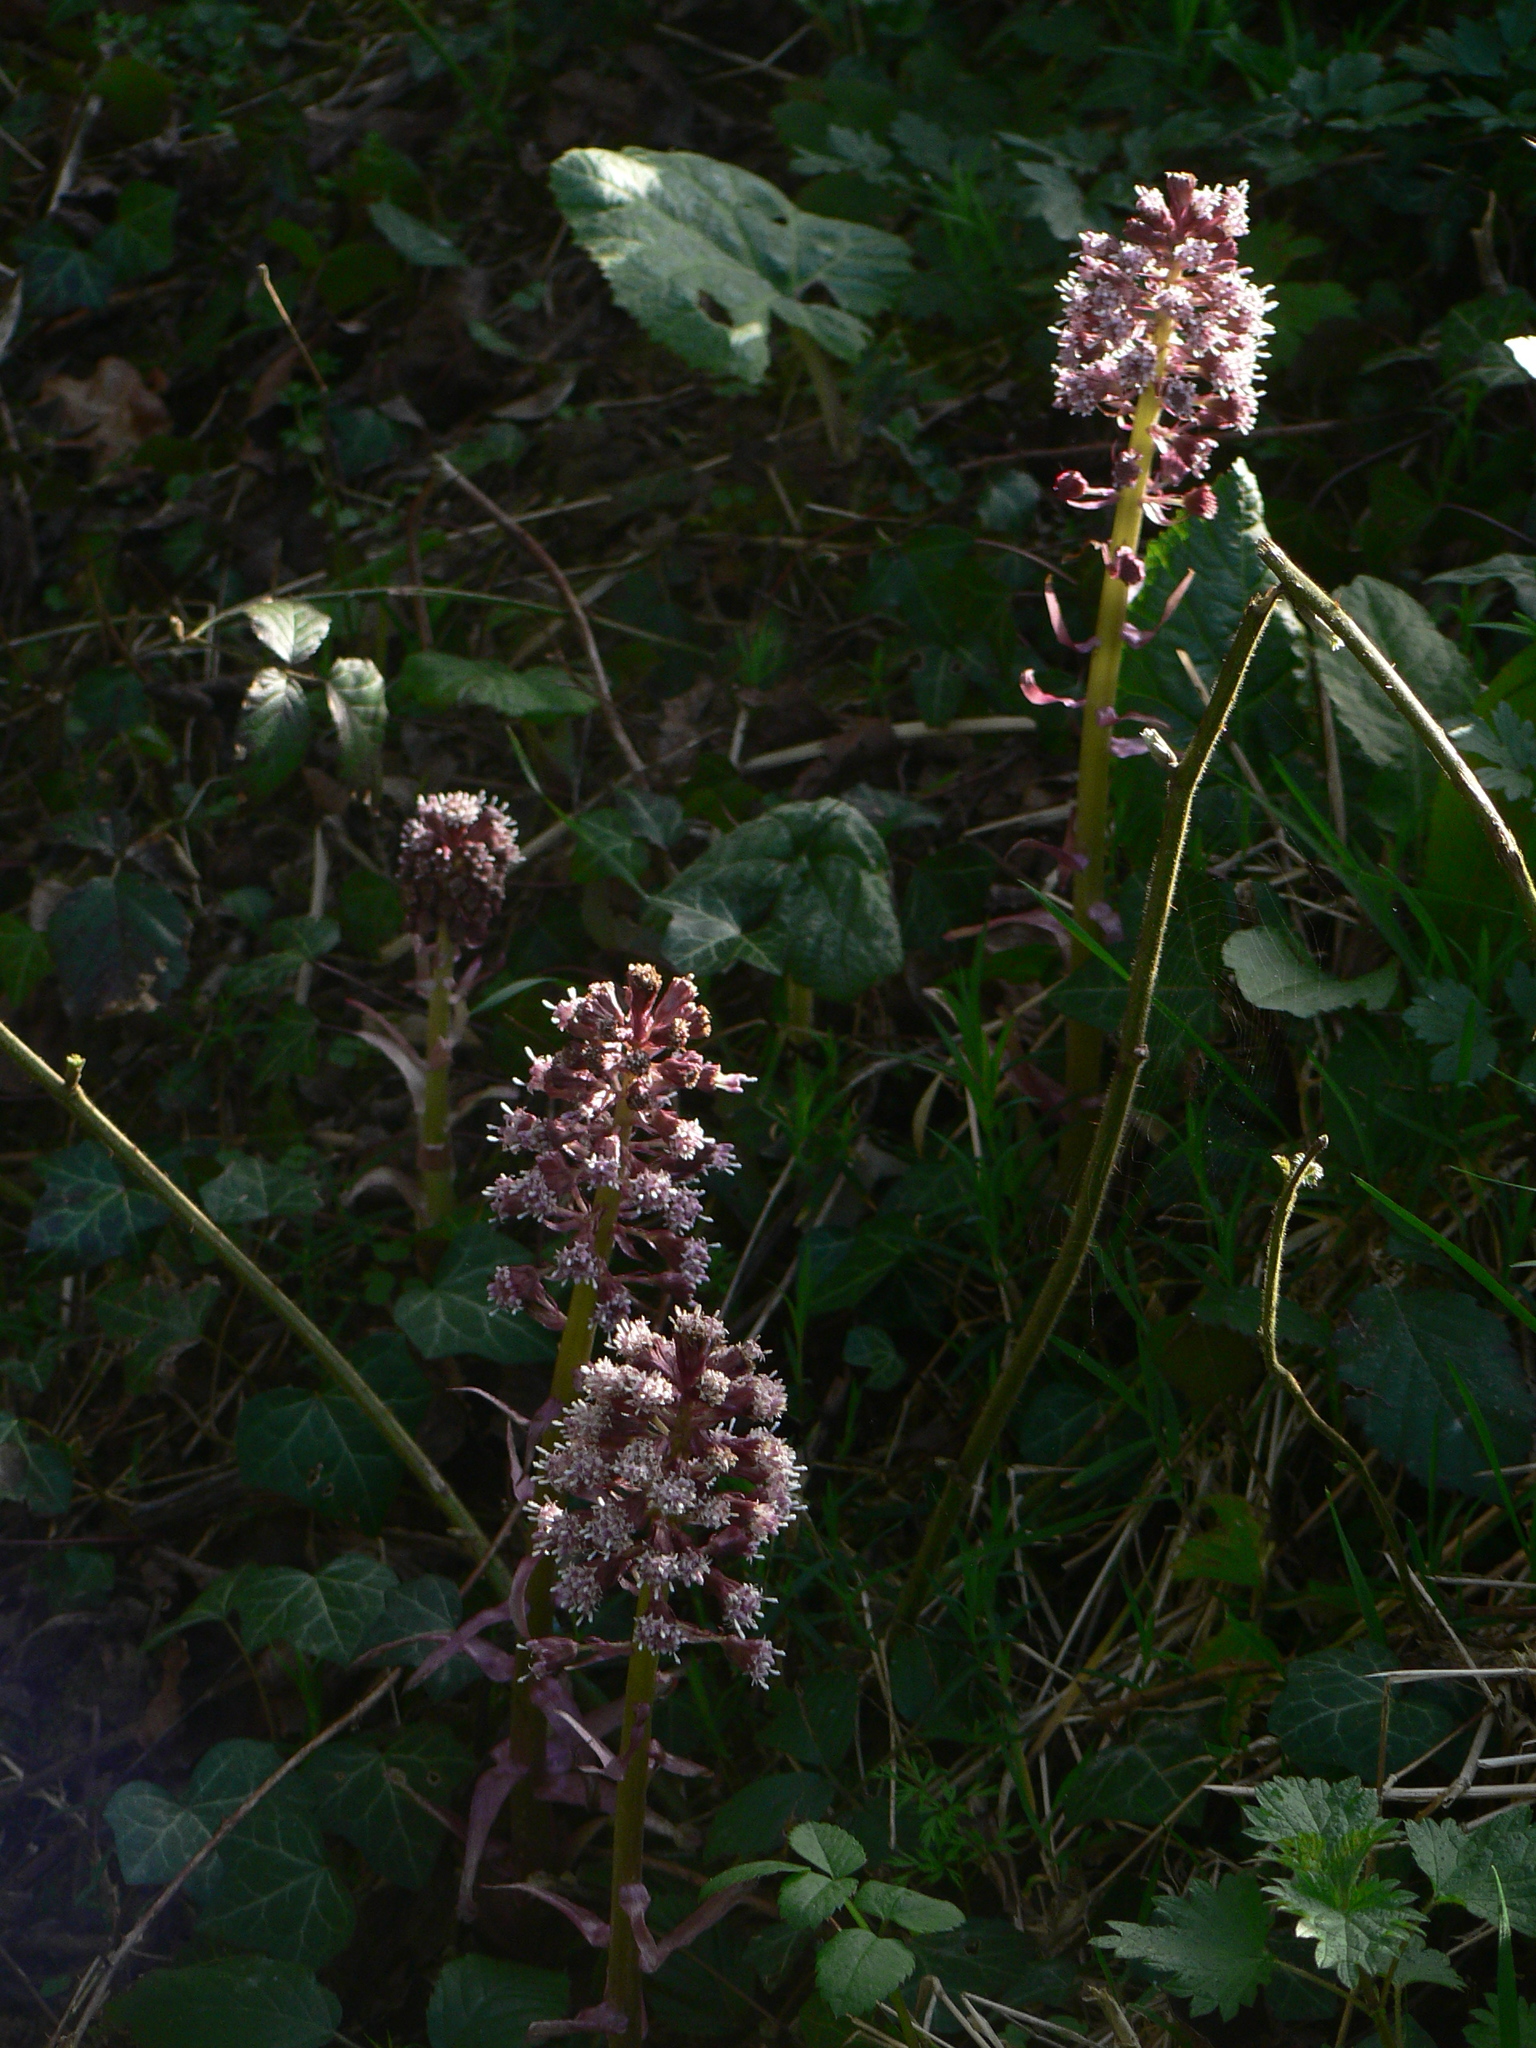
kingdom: Plantae
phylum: Tracheophyta
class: Magnoliopsida
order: Asterales
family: Asteraceae
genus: Petasites
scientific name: Petasites hybridus
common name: Butterbur
